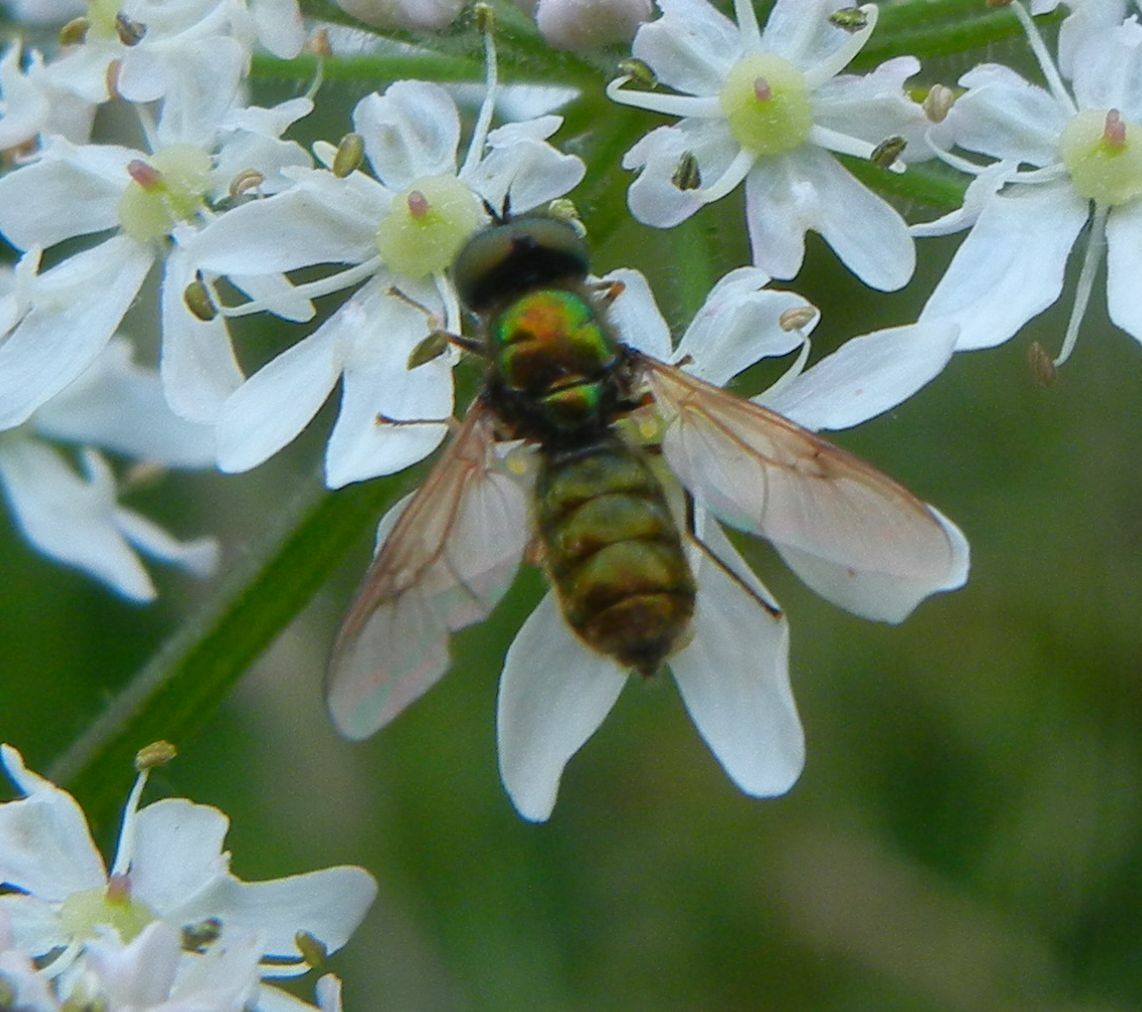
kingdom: Animalia
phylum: Arthropoda
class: Insecta
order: Diptera
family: Stratiomyidae
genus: Chloromyia
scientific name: Chloromyia formosa
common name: Soldier fly
